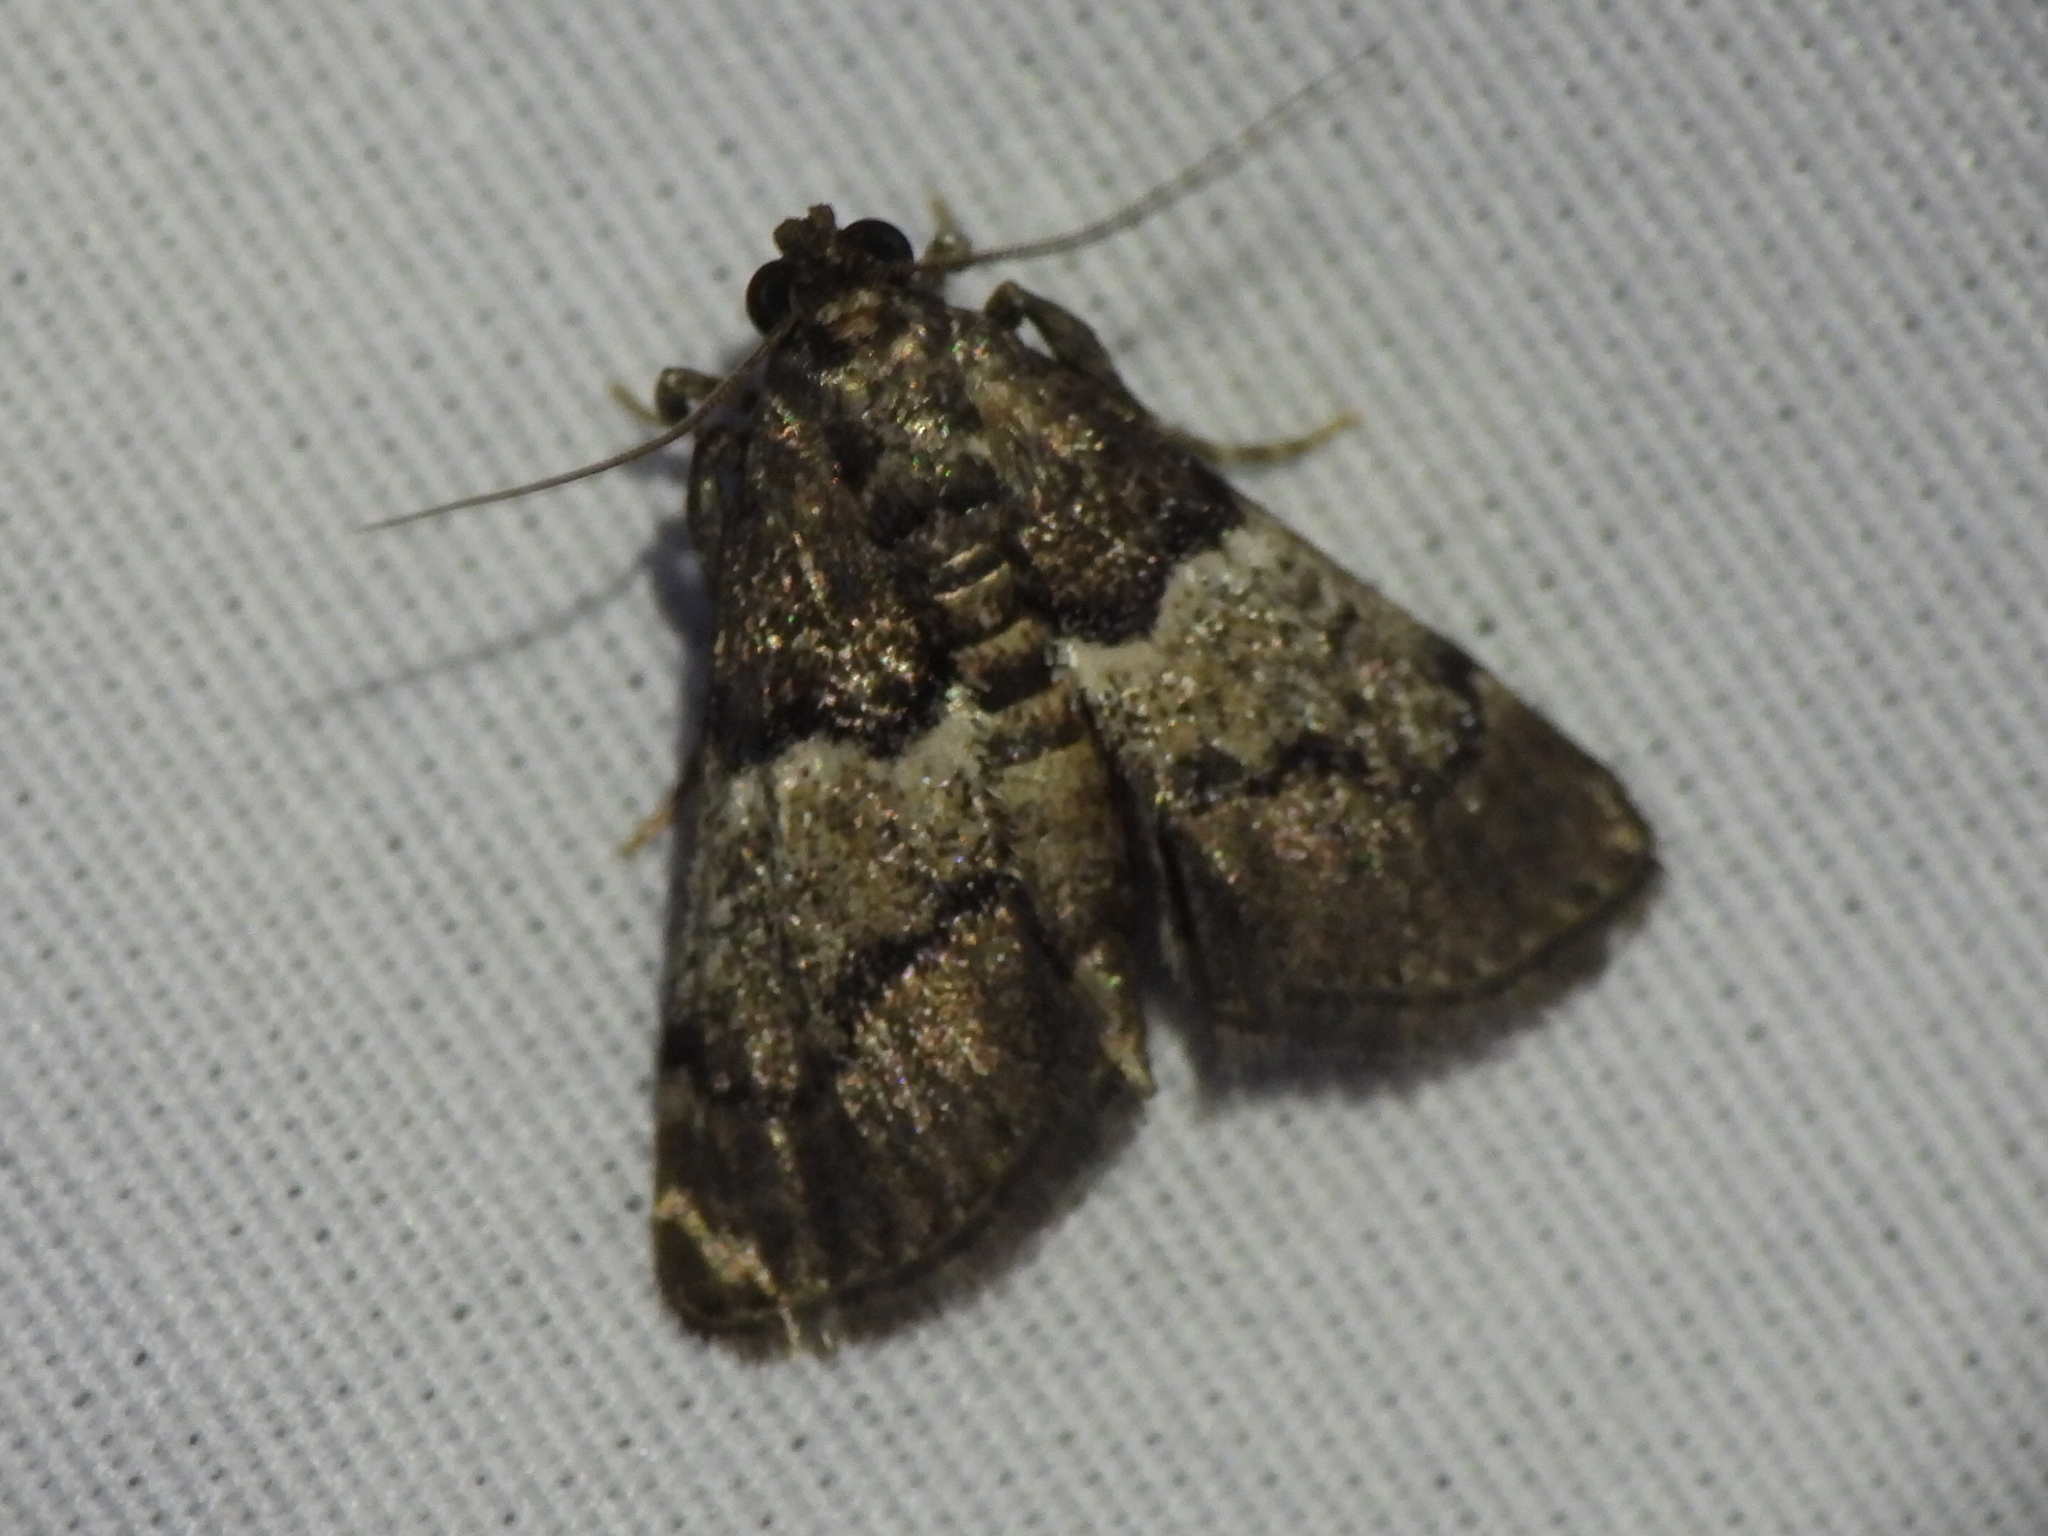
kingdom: Animalia
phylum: Arthropoda
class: Insecta
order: Lepidoptera
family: Pyralidae
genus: Macalla
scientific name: Macalla zelleri
